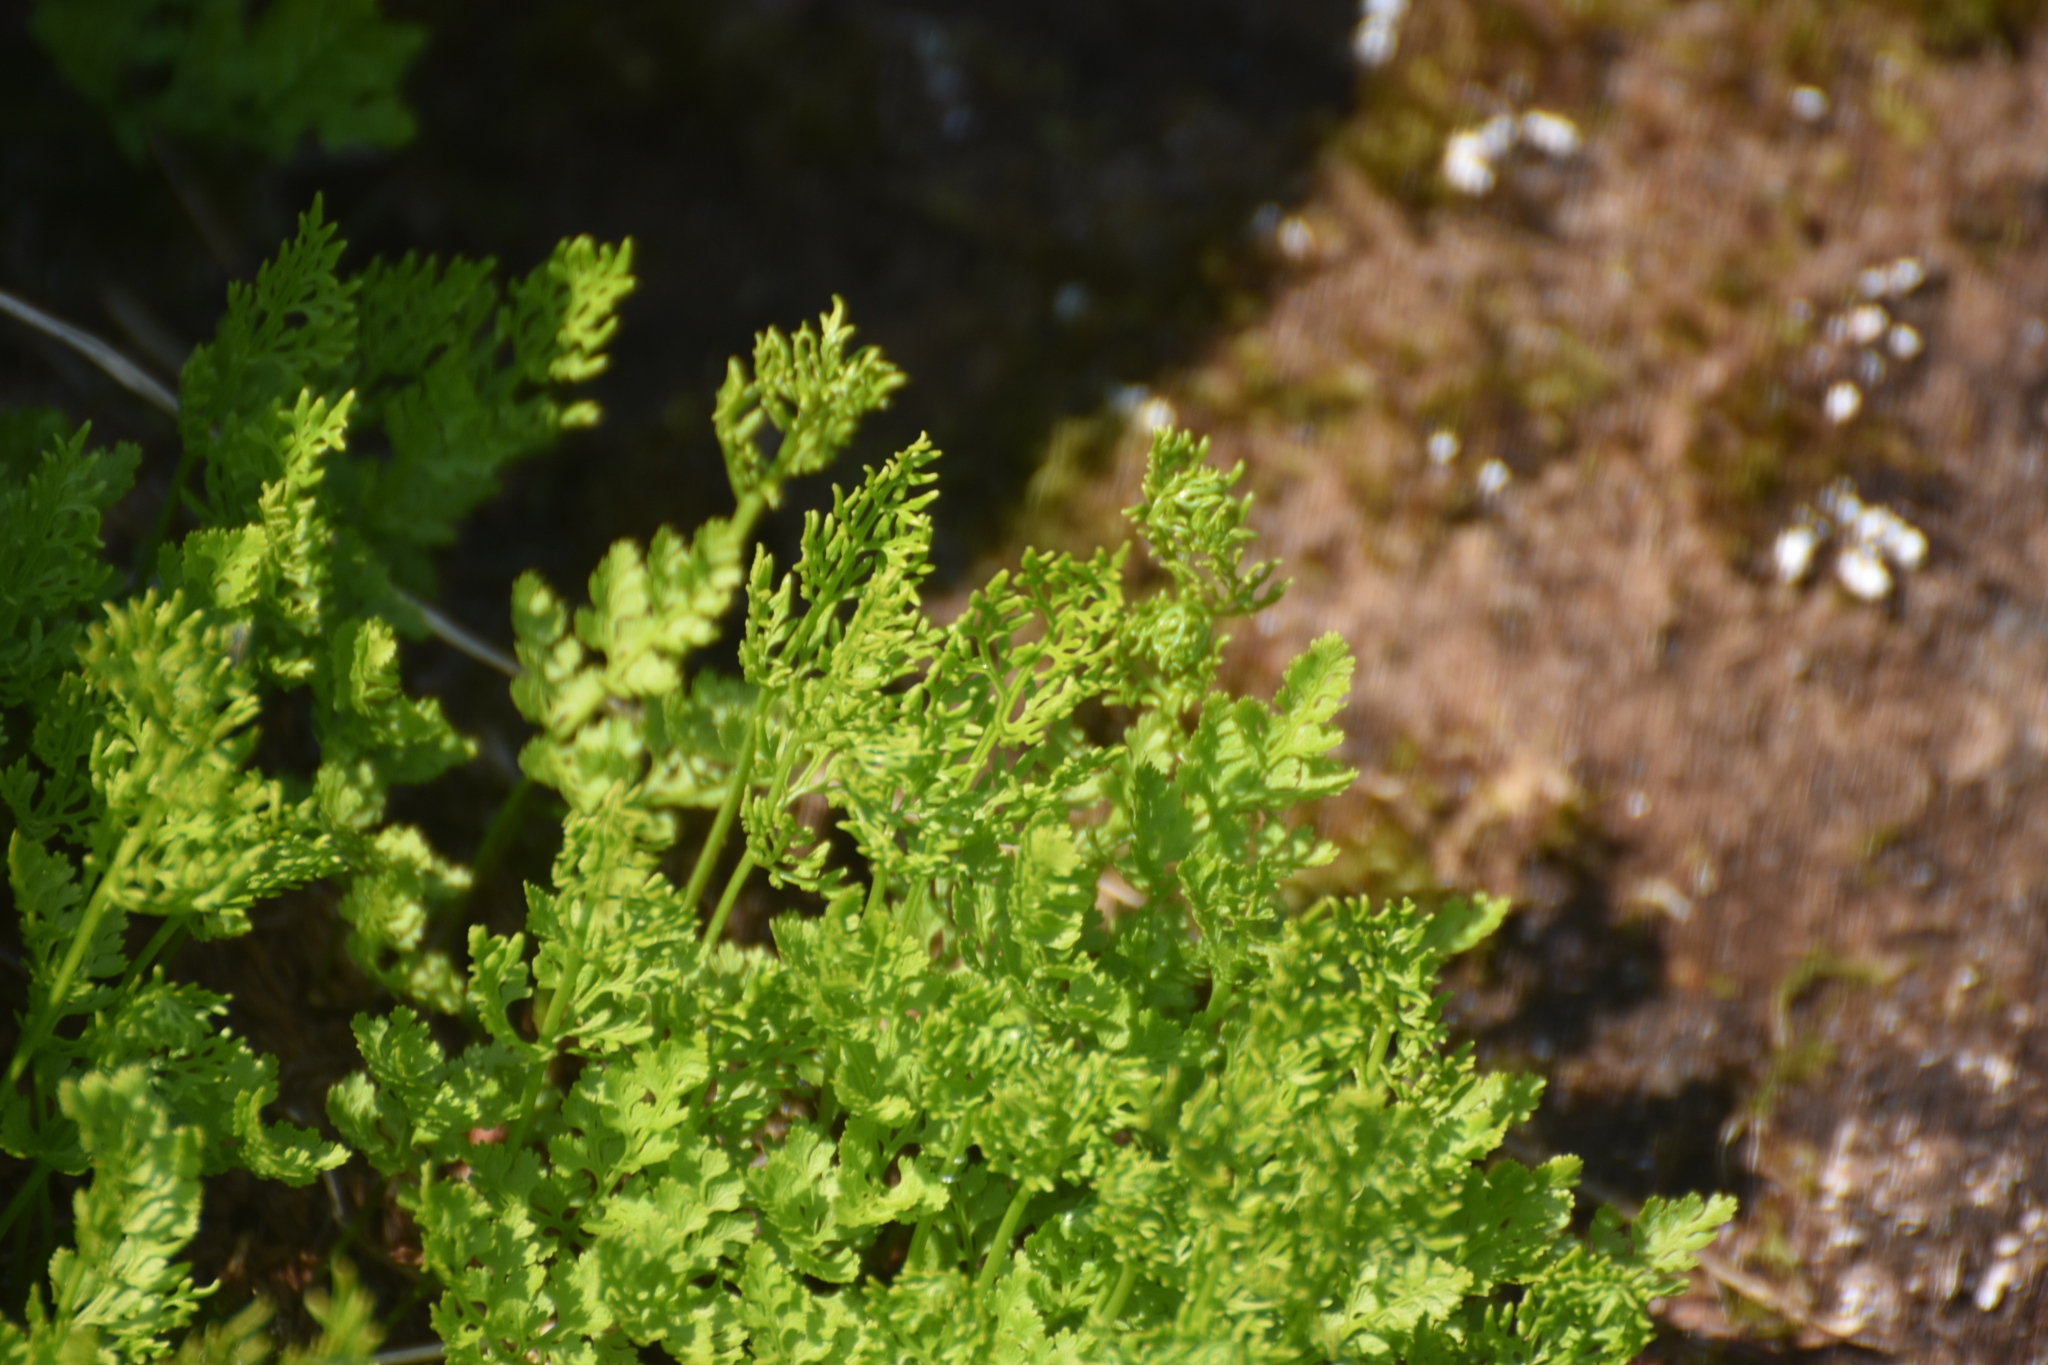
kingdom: Plantae
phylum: Tracheophyta
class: Polypodiopsida
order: Polypodiales
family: Pteridaceae
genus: Cryptogramma
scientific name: Cryptogramma crispa
